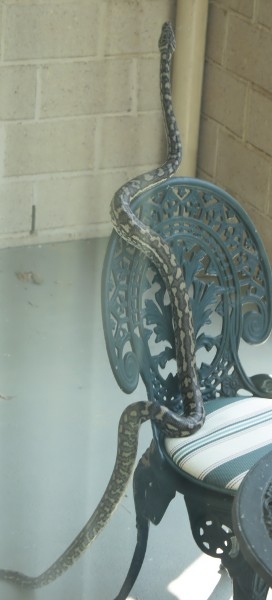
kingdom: Animalia
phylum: Chordata
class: Squamata
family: Pythonidae
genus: Morelia
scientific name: Morelia spilota
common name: Carpet python
